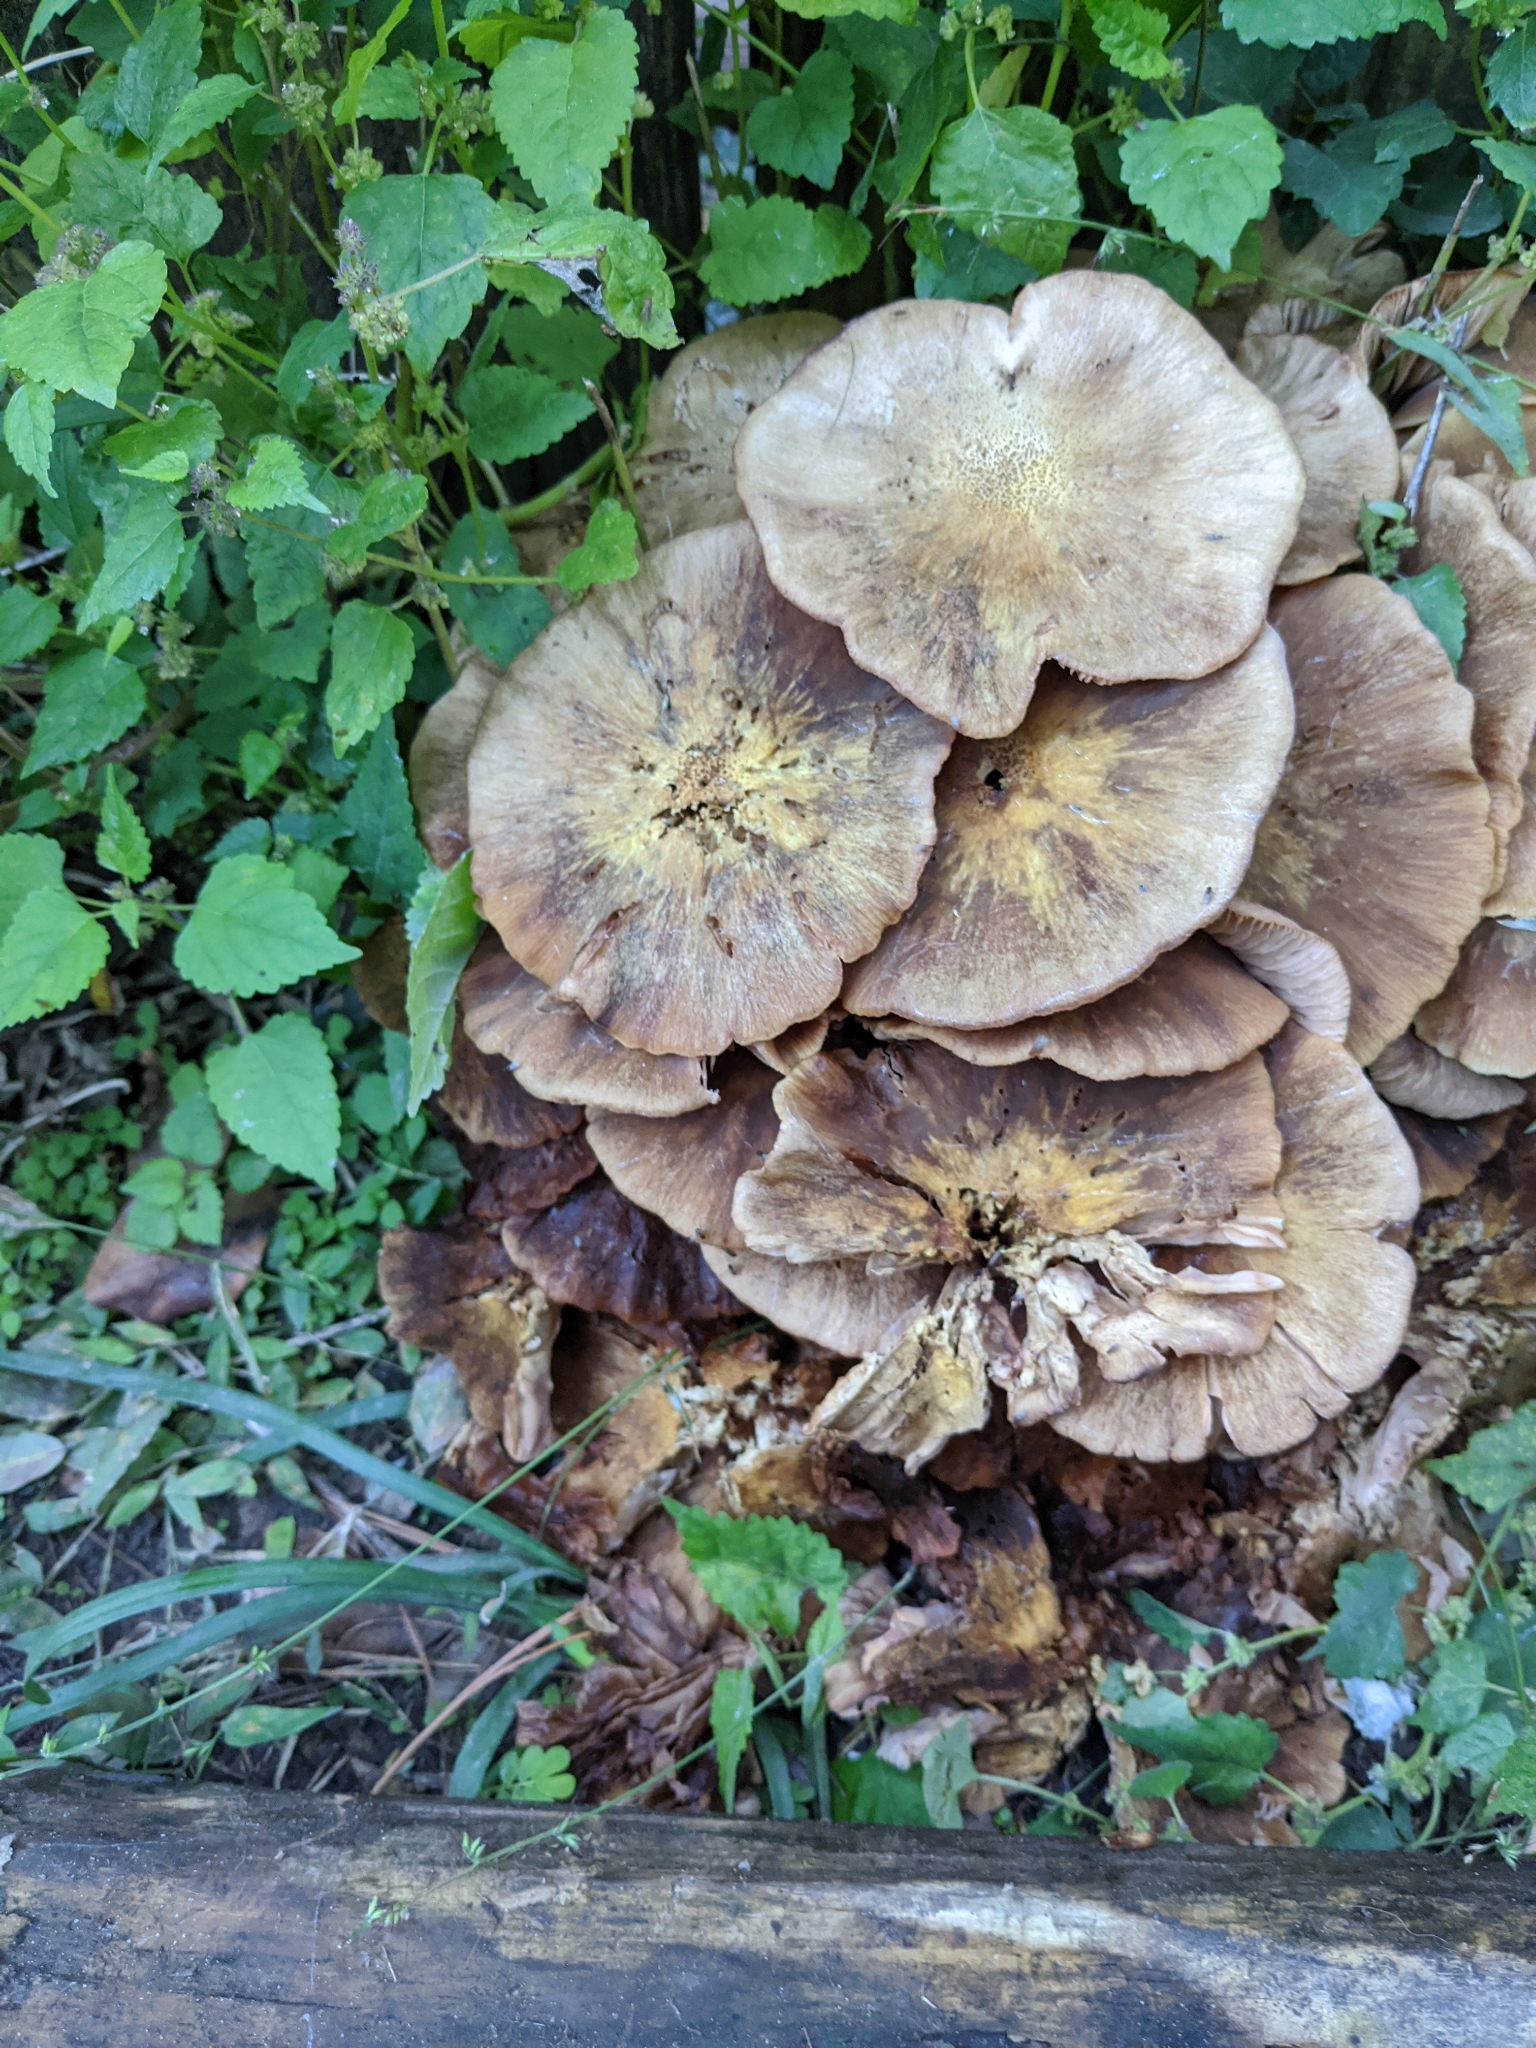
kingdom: Fungi
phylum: Basidiomycota
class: Agaricomycetes
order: Agaricales
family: Physalacriaceae
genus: Desarmillaria
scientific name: Desarmillaria caespitosa
